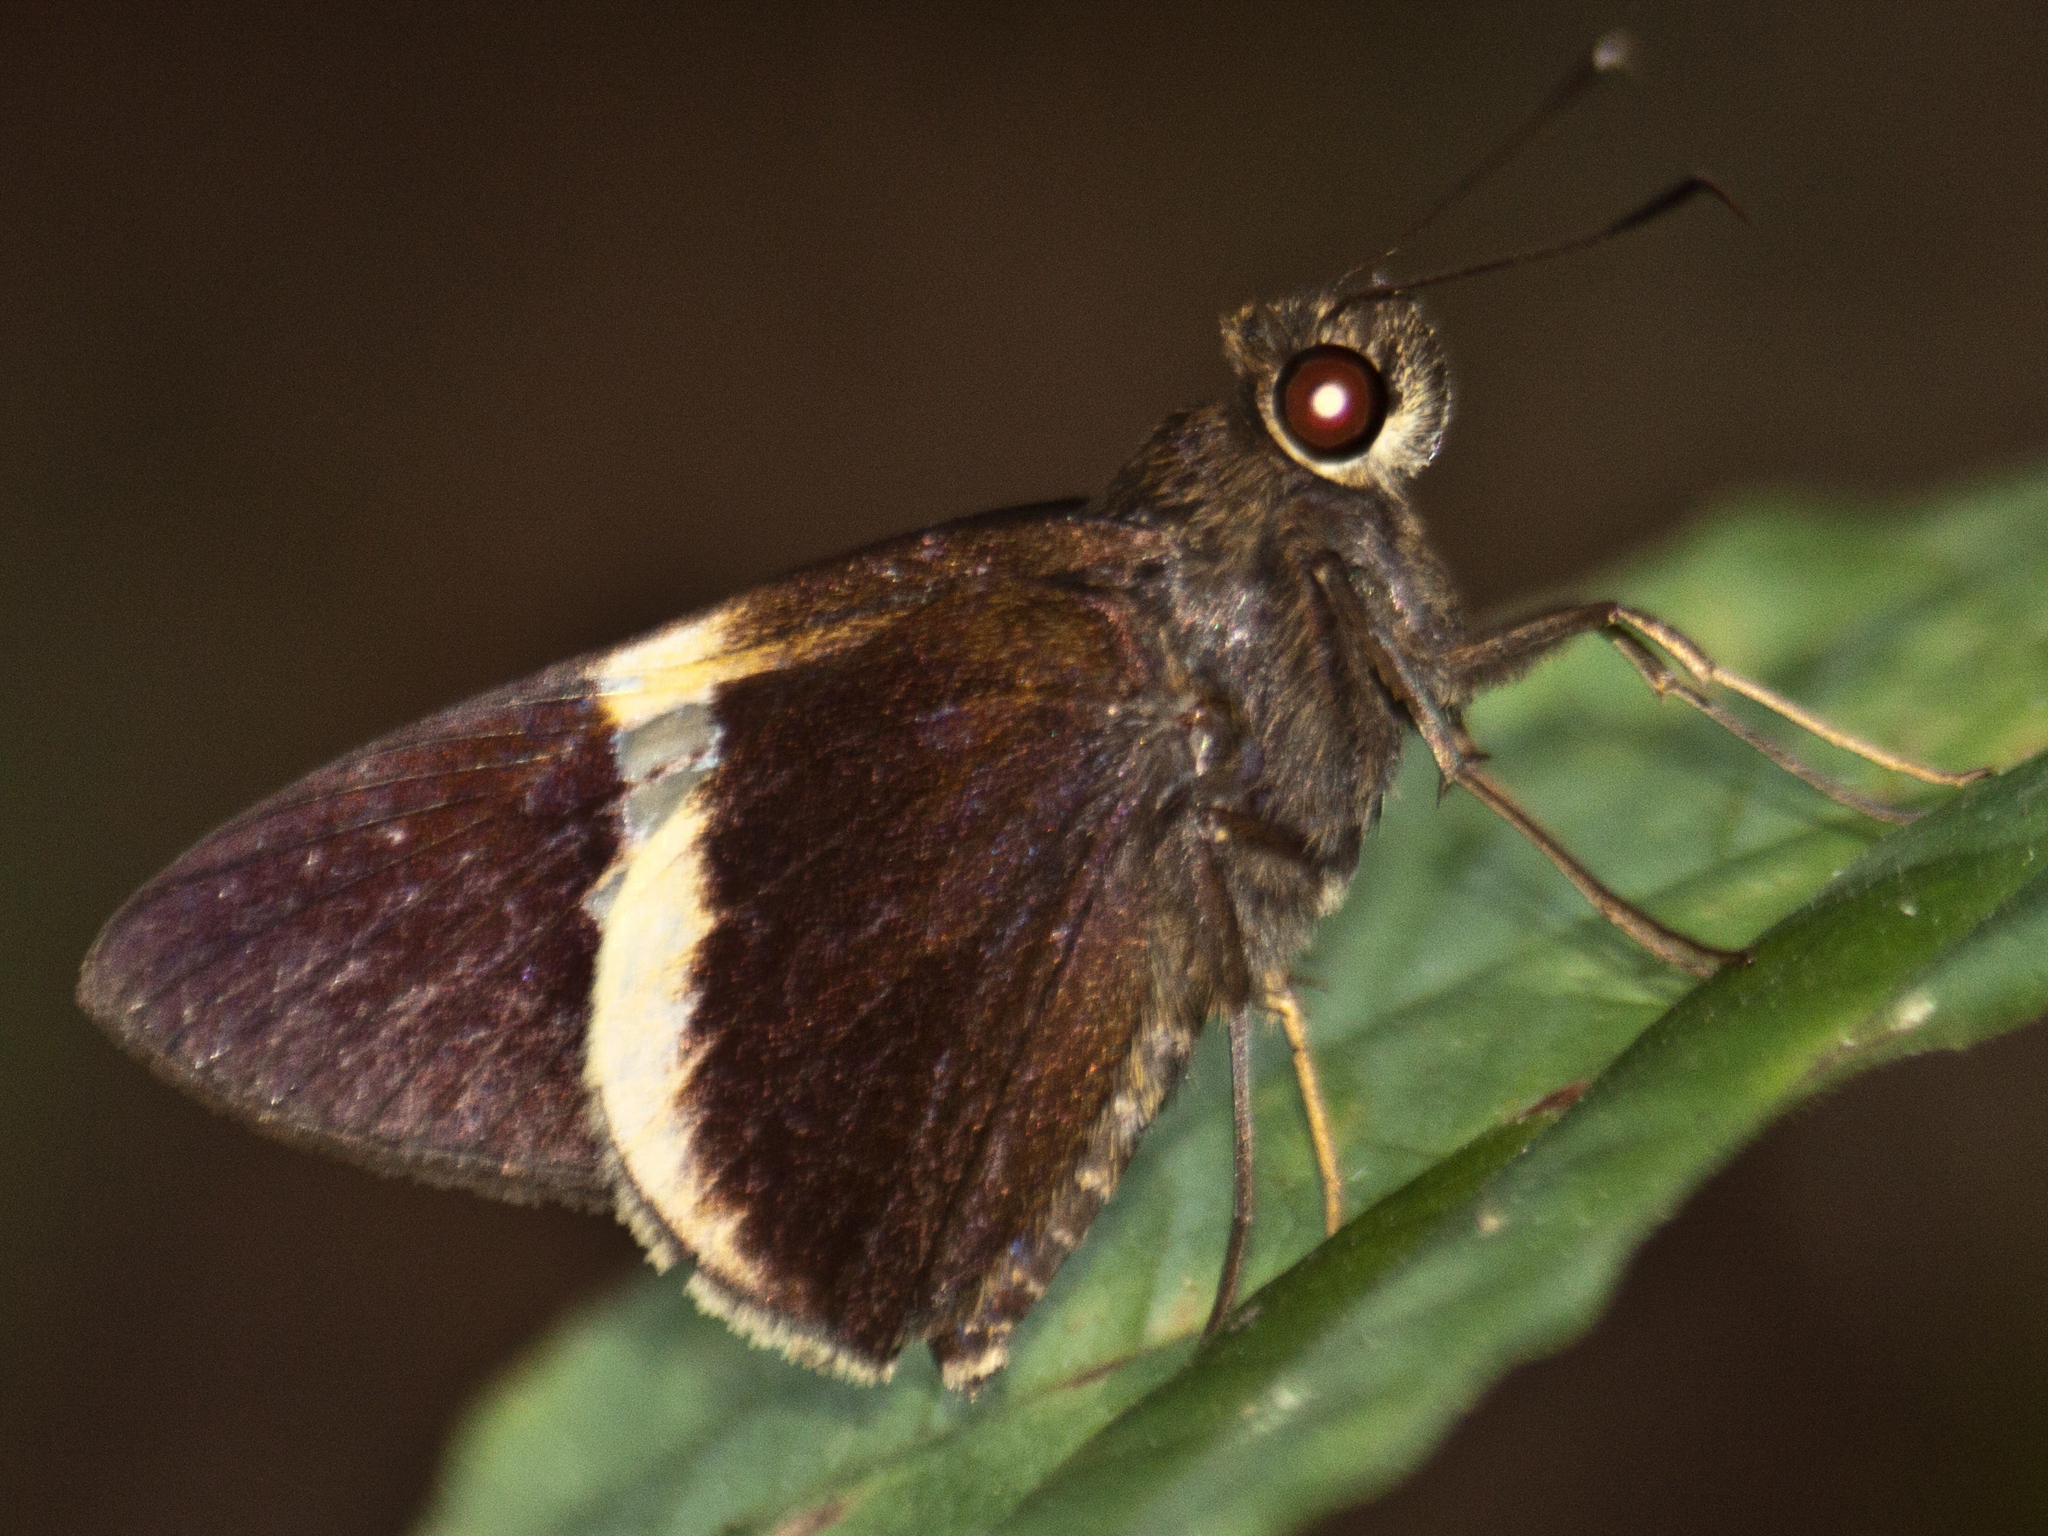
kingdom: Animalia
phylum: Arthropoda
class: Insecta
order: Lepidoptera
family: Hesperiidae
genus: Lotongus
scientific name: Lotongus calathus
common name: White-tipped palmer
